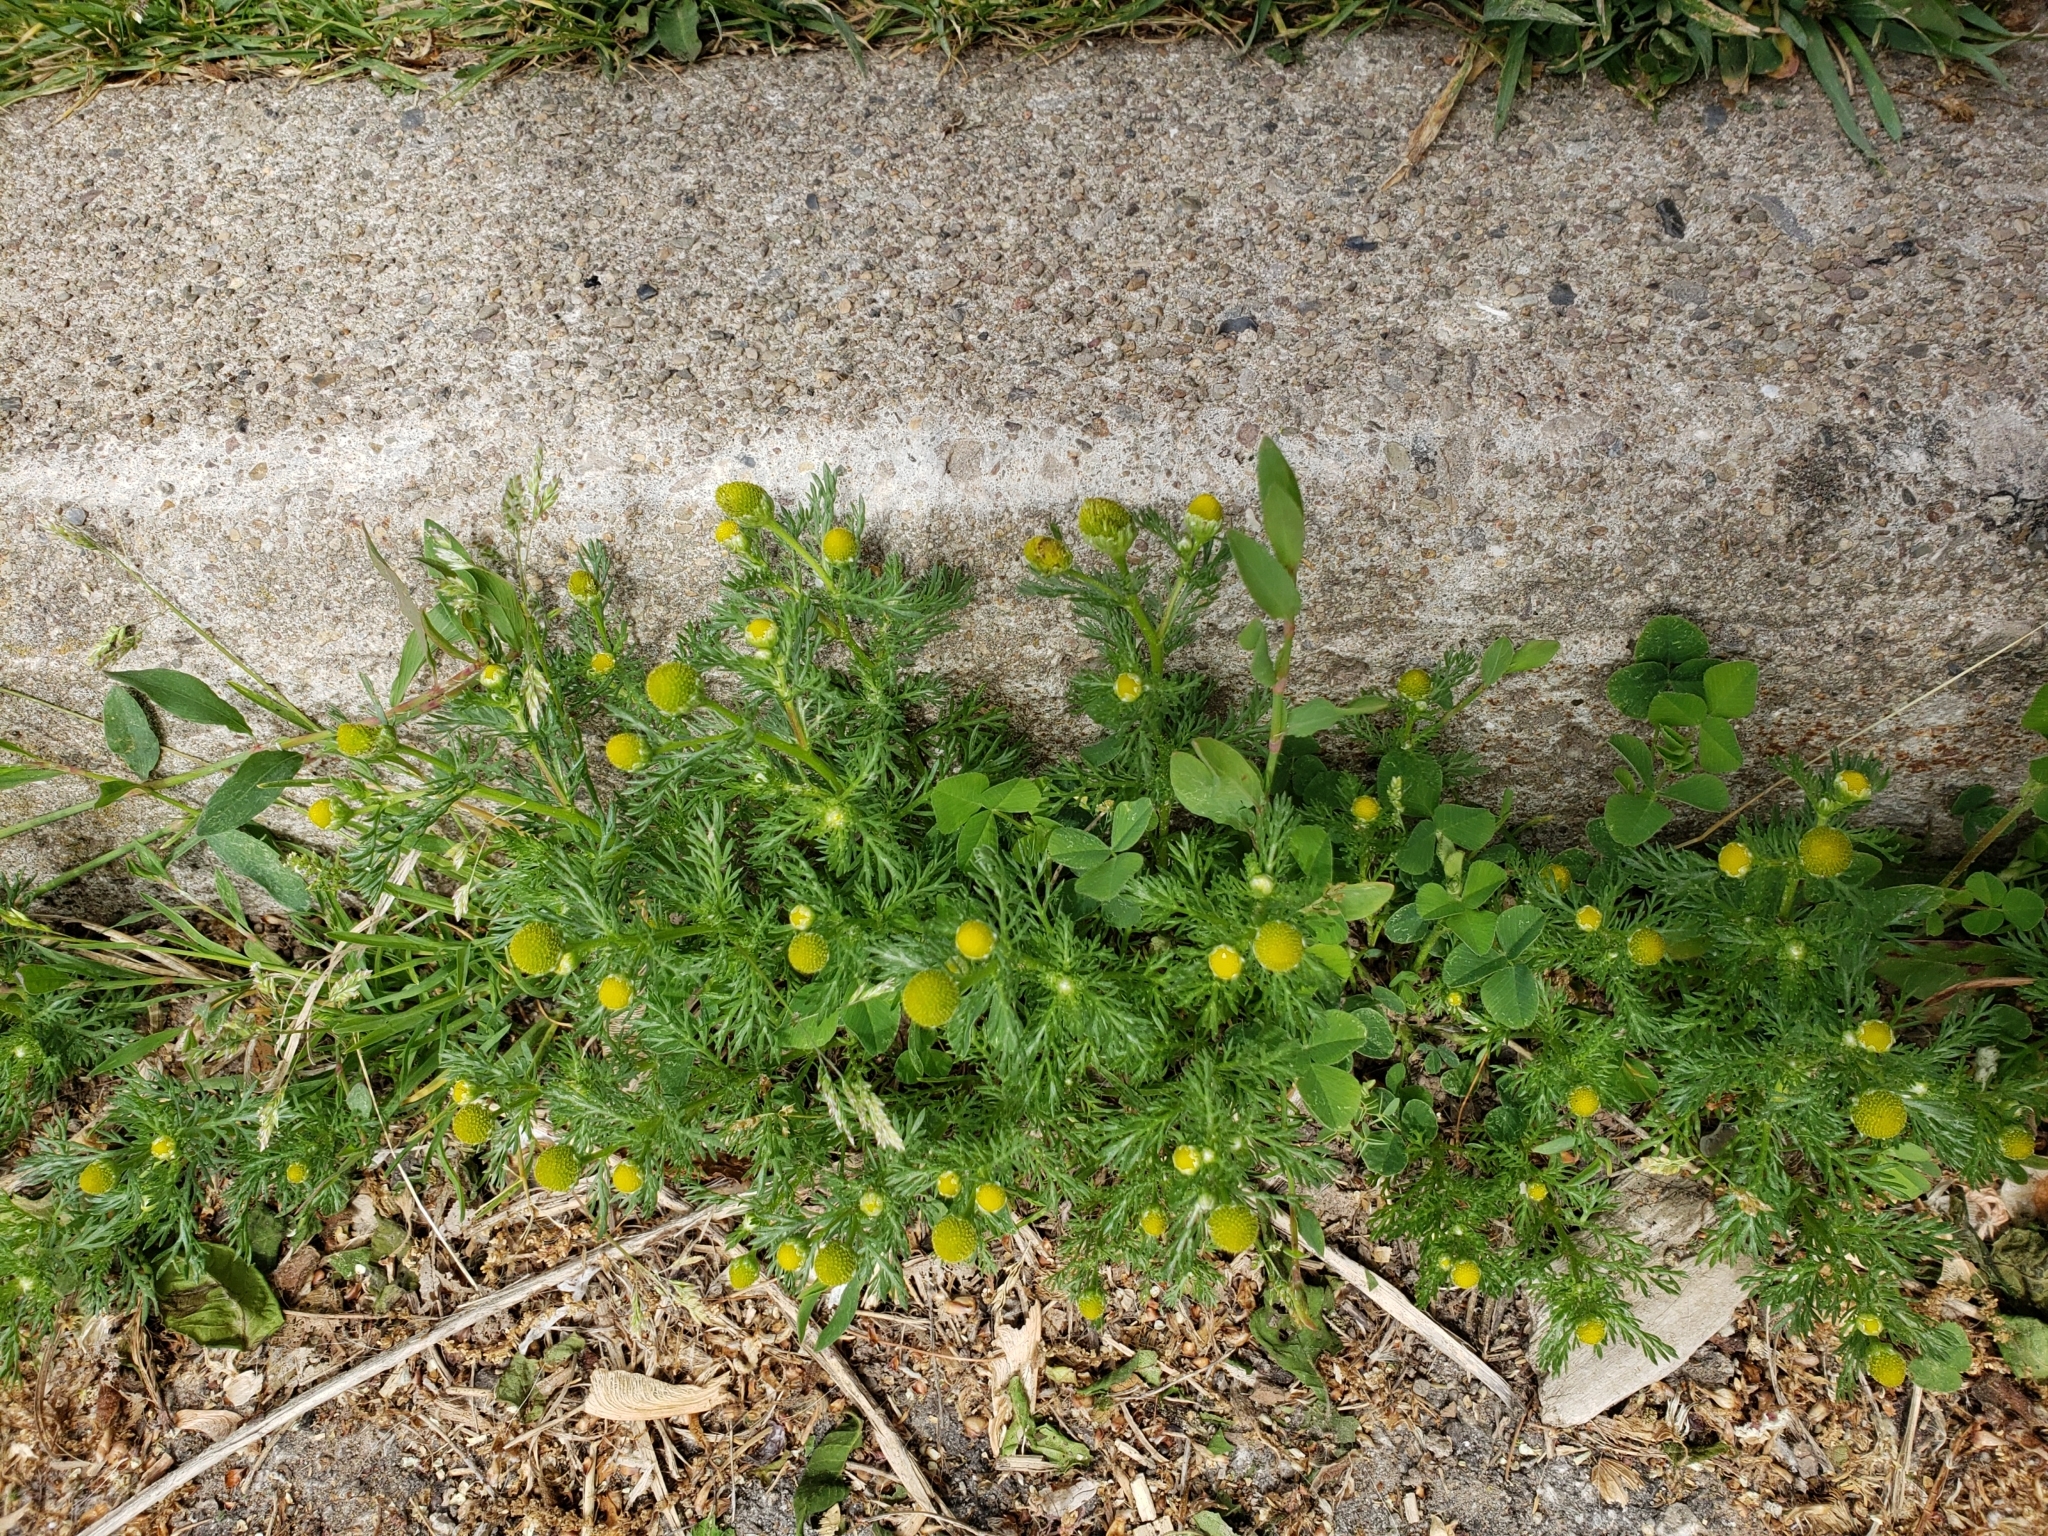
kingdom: Plantae
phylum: Tracheophyta
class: Magnoliopsida
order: Asterales
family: Asteraceae
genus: Matricaria
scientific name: Matricaria discoidea
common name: Disc mayweed
